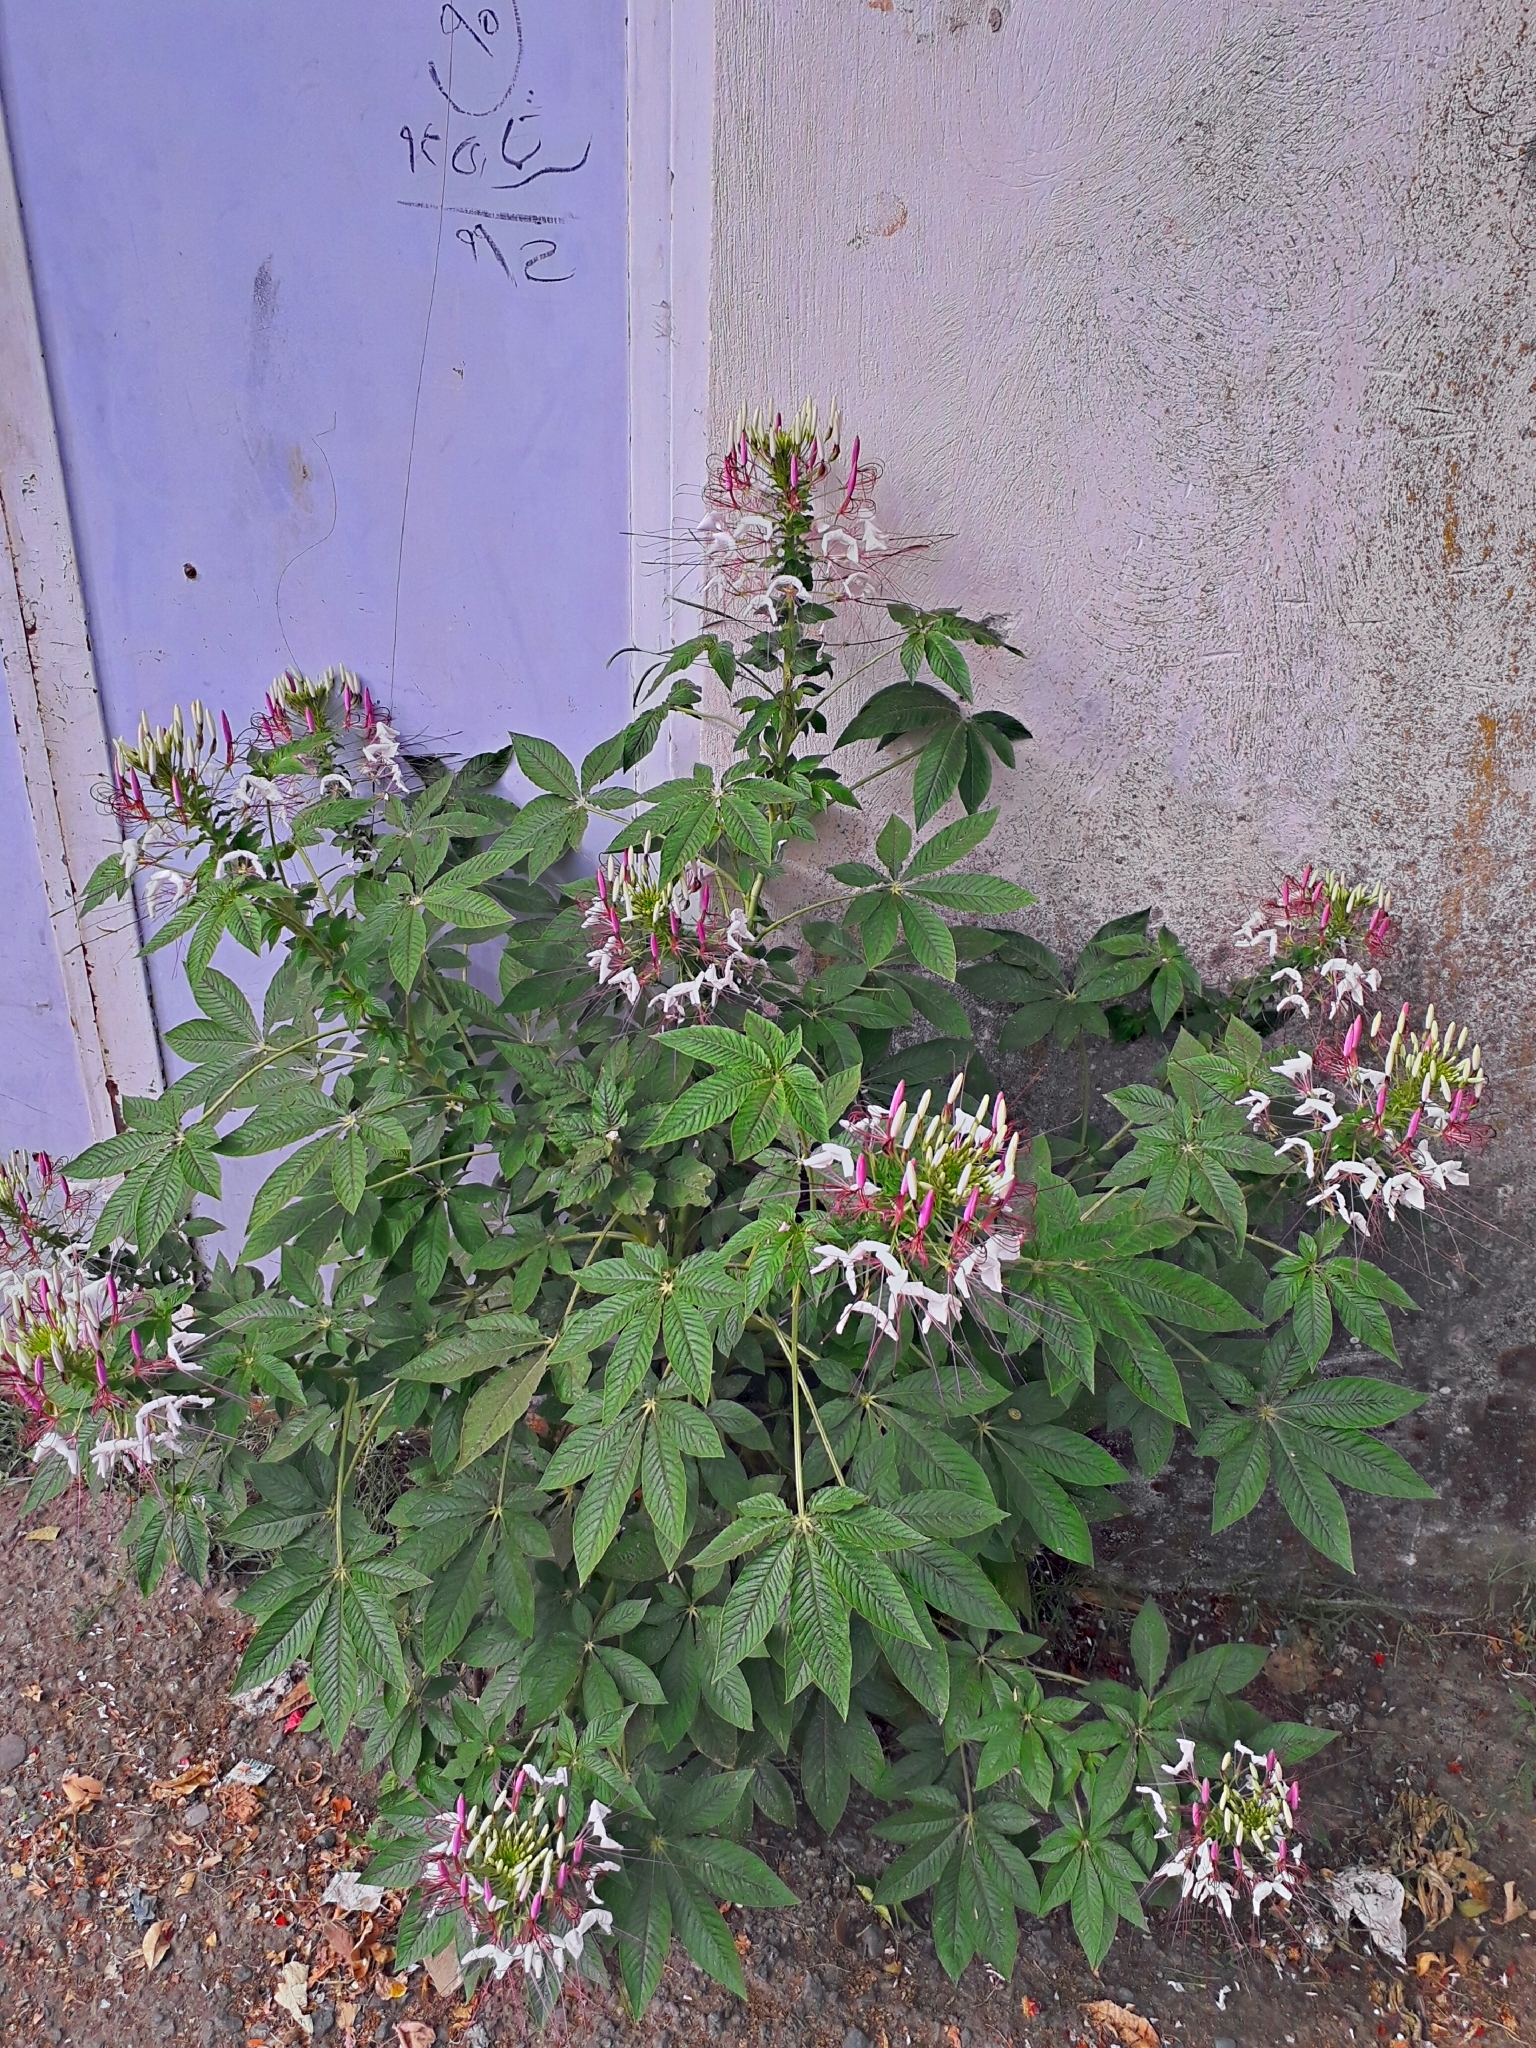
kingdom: Plantae
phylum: Tracheophyta
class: Magnoliopsida
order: Brassicales
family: Cleomaceae
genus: Tarenaya
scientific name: Tarenaya houtteana
